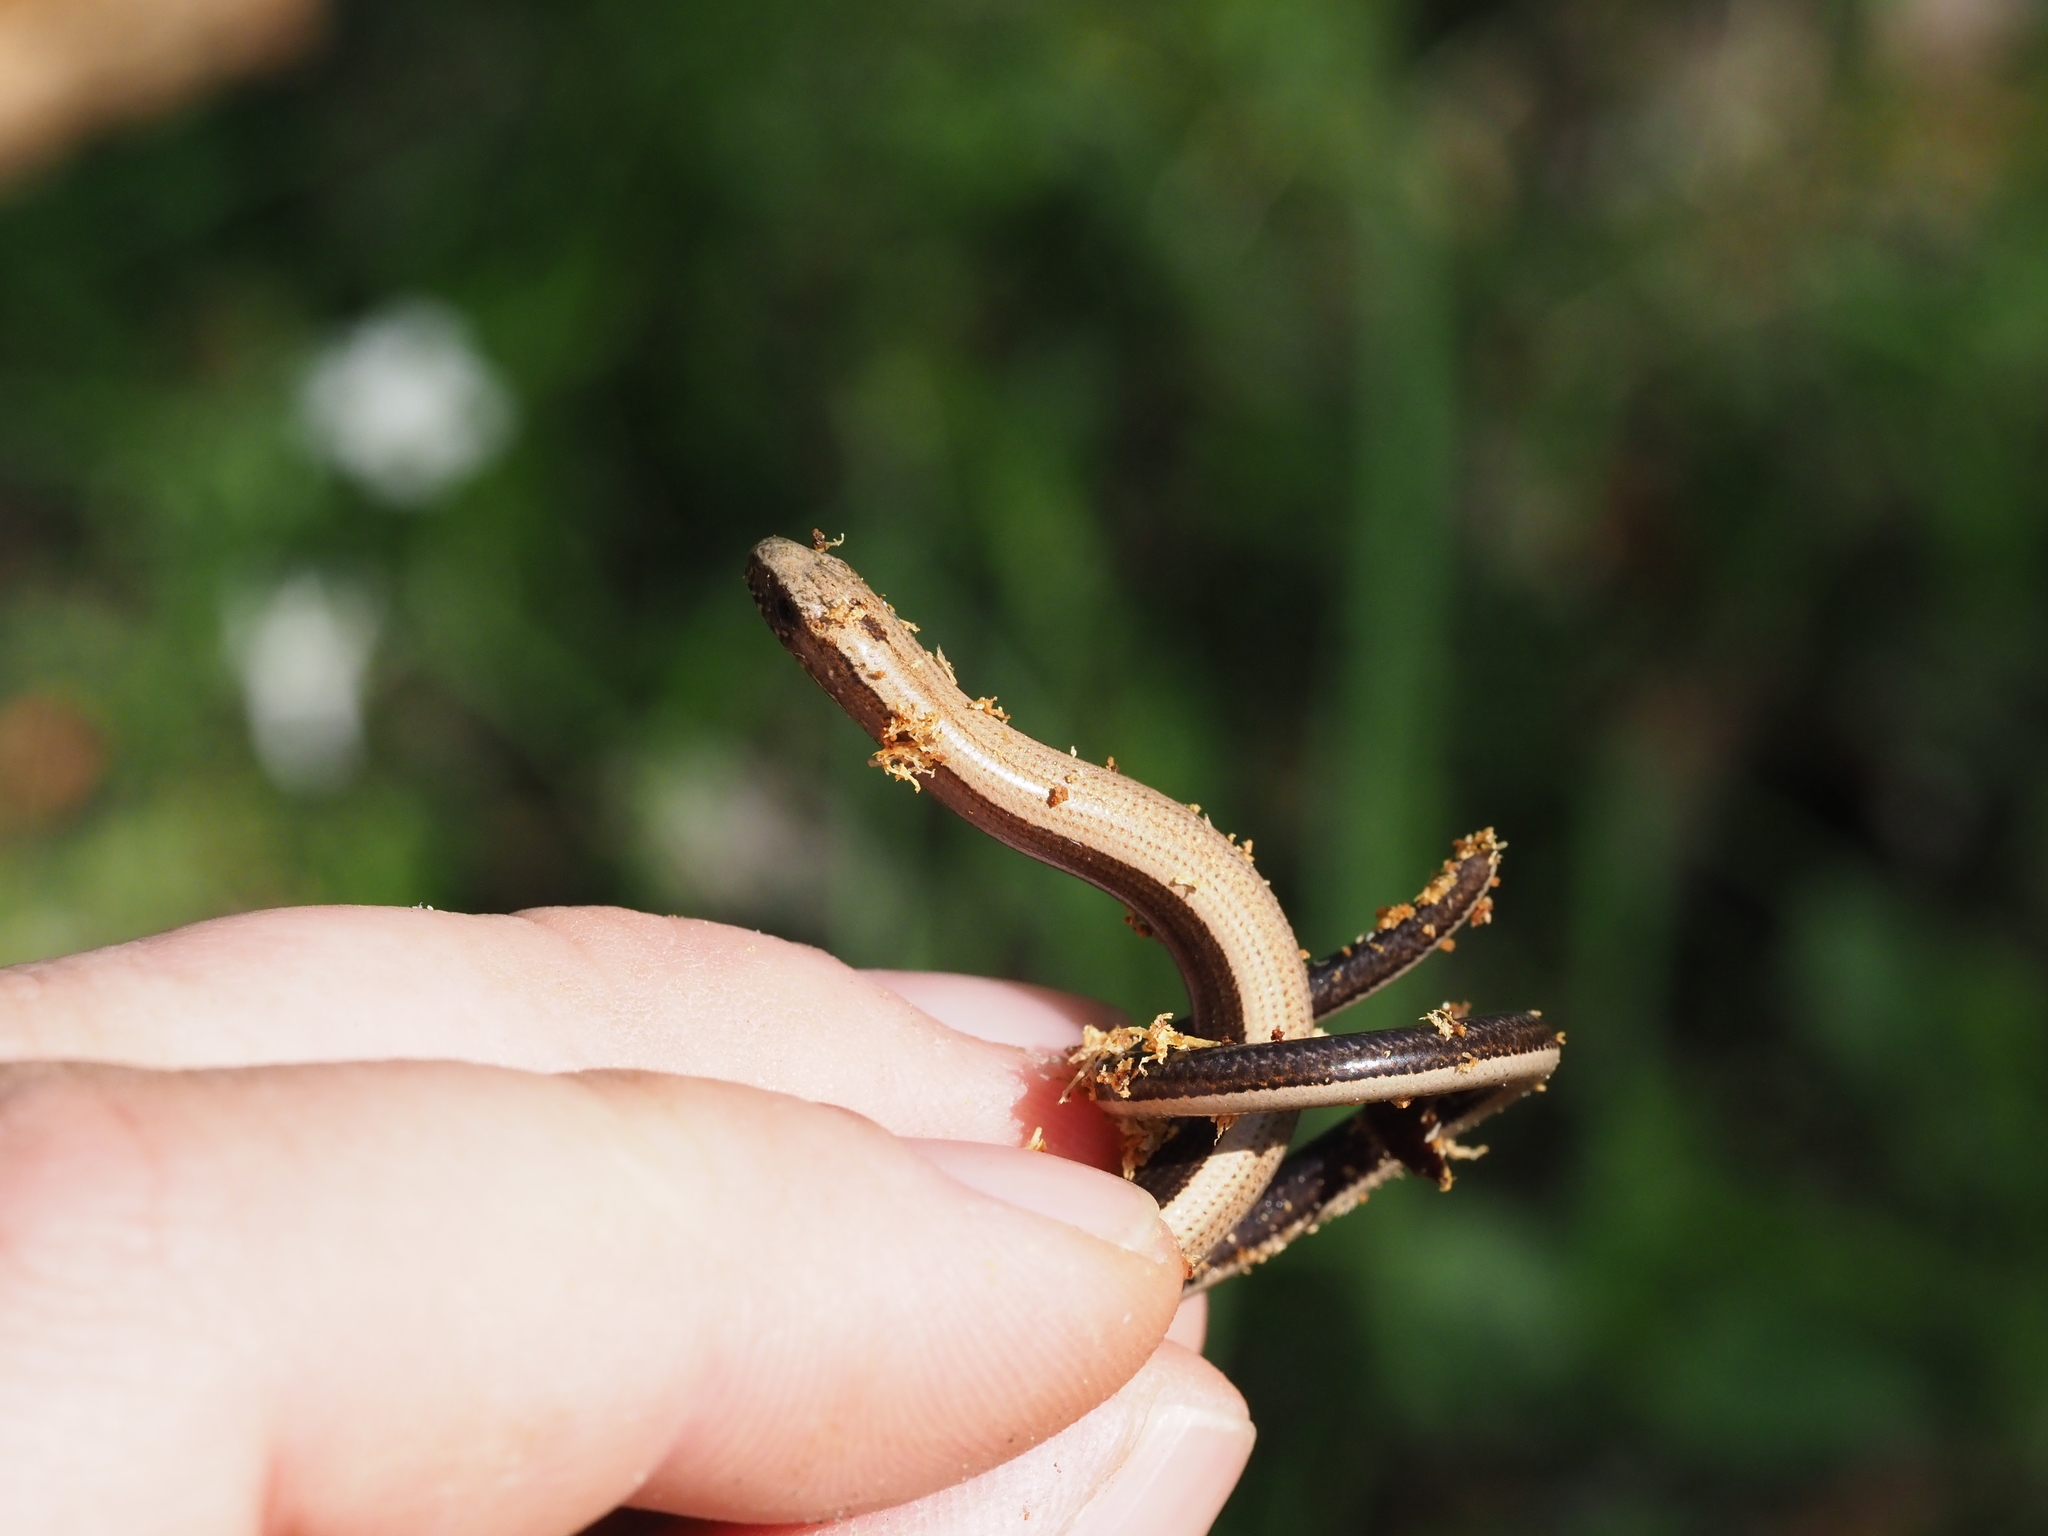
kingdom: Animalia
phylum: Chordata
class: Squamata
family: Anguidae
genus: Anguis
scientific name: Anguis fragilis
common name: Slow worm
